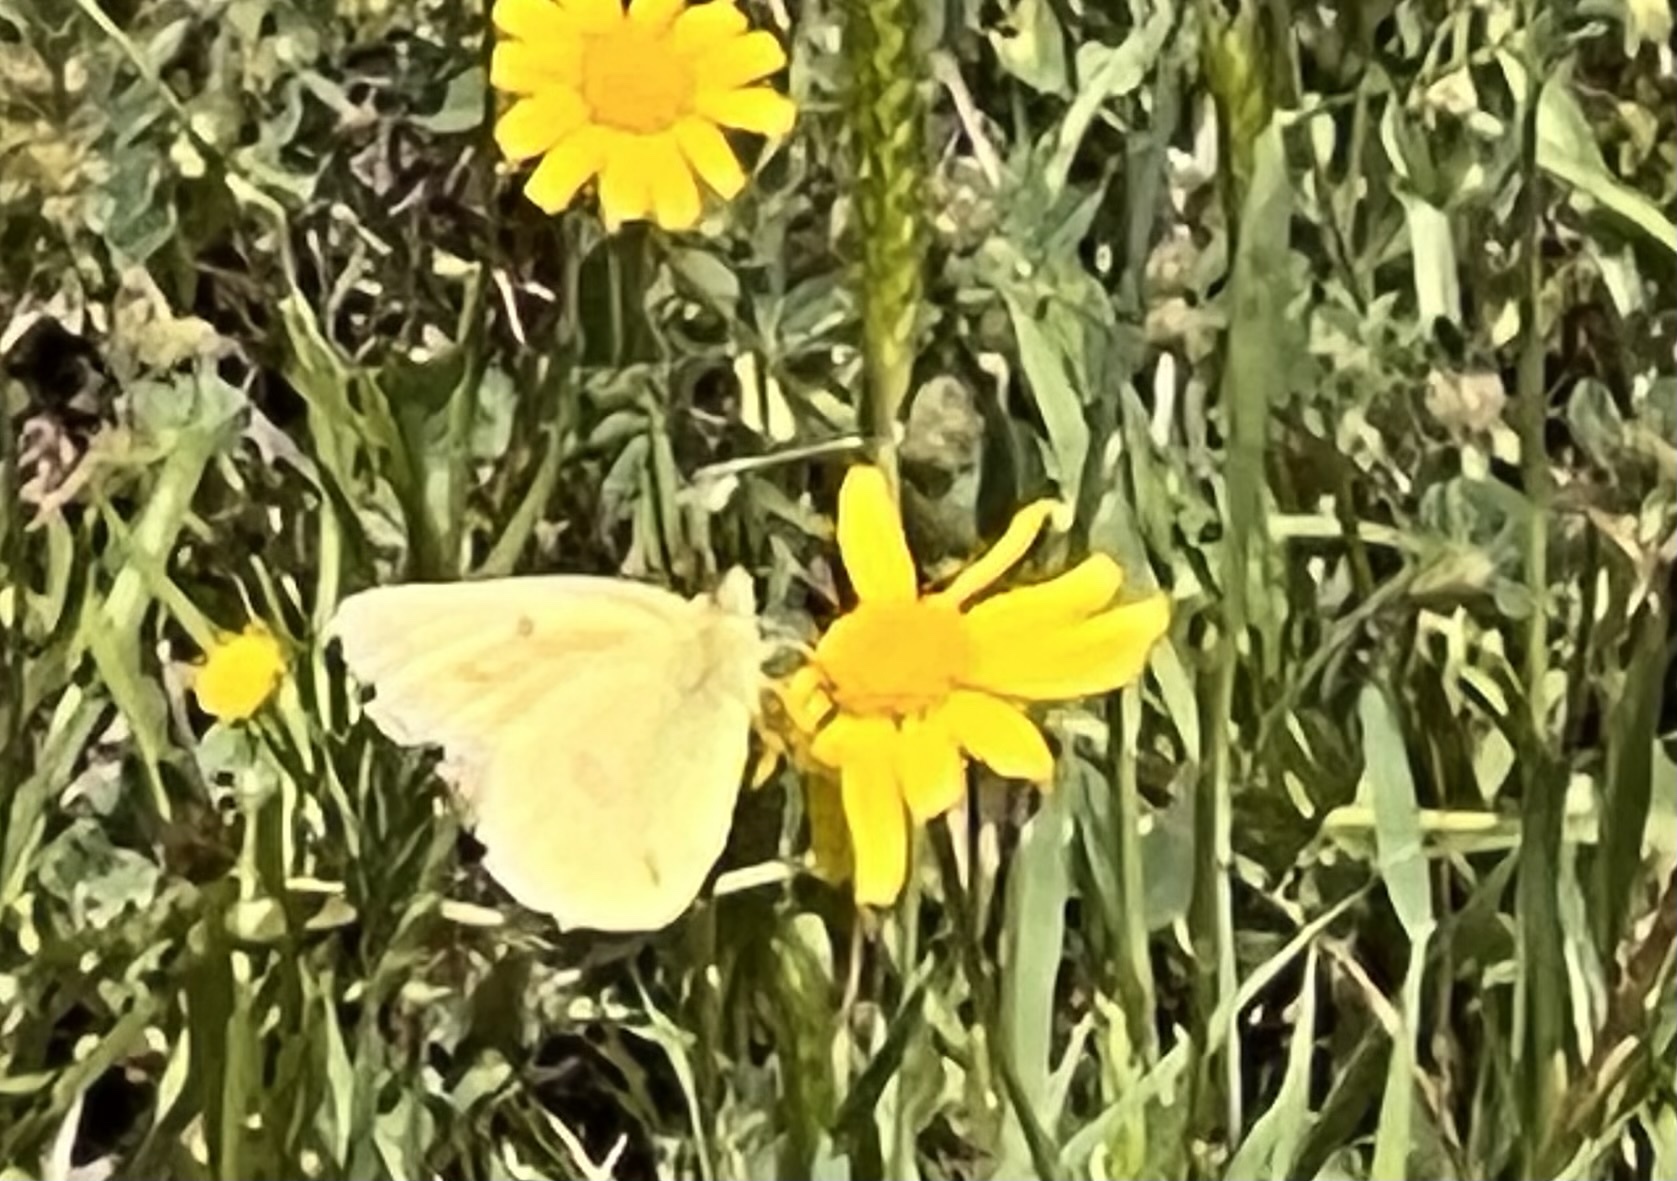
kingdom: Animalia
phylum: Arthropoda
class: Insecta
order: Lepidoptera
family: Pieridae
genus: Colias
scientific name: Colias eurytheme
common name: Alfalfa butterfly
